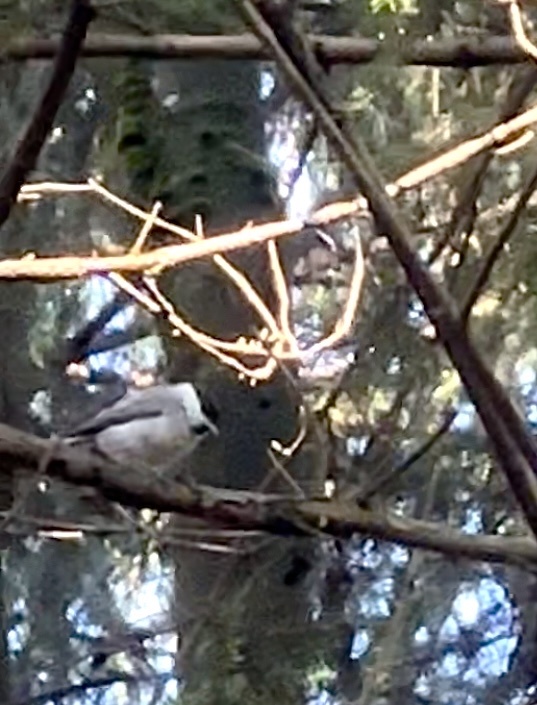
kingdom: Animalia
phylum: Chordata
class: Aves
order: Passeriformes
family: Paridae
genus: Poecile
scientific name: Poecile palustris
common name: Marsh tit
